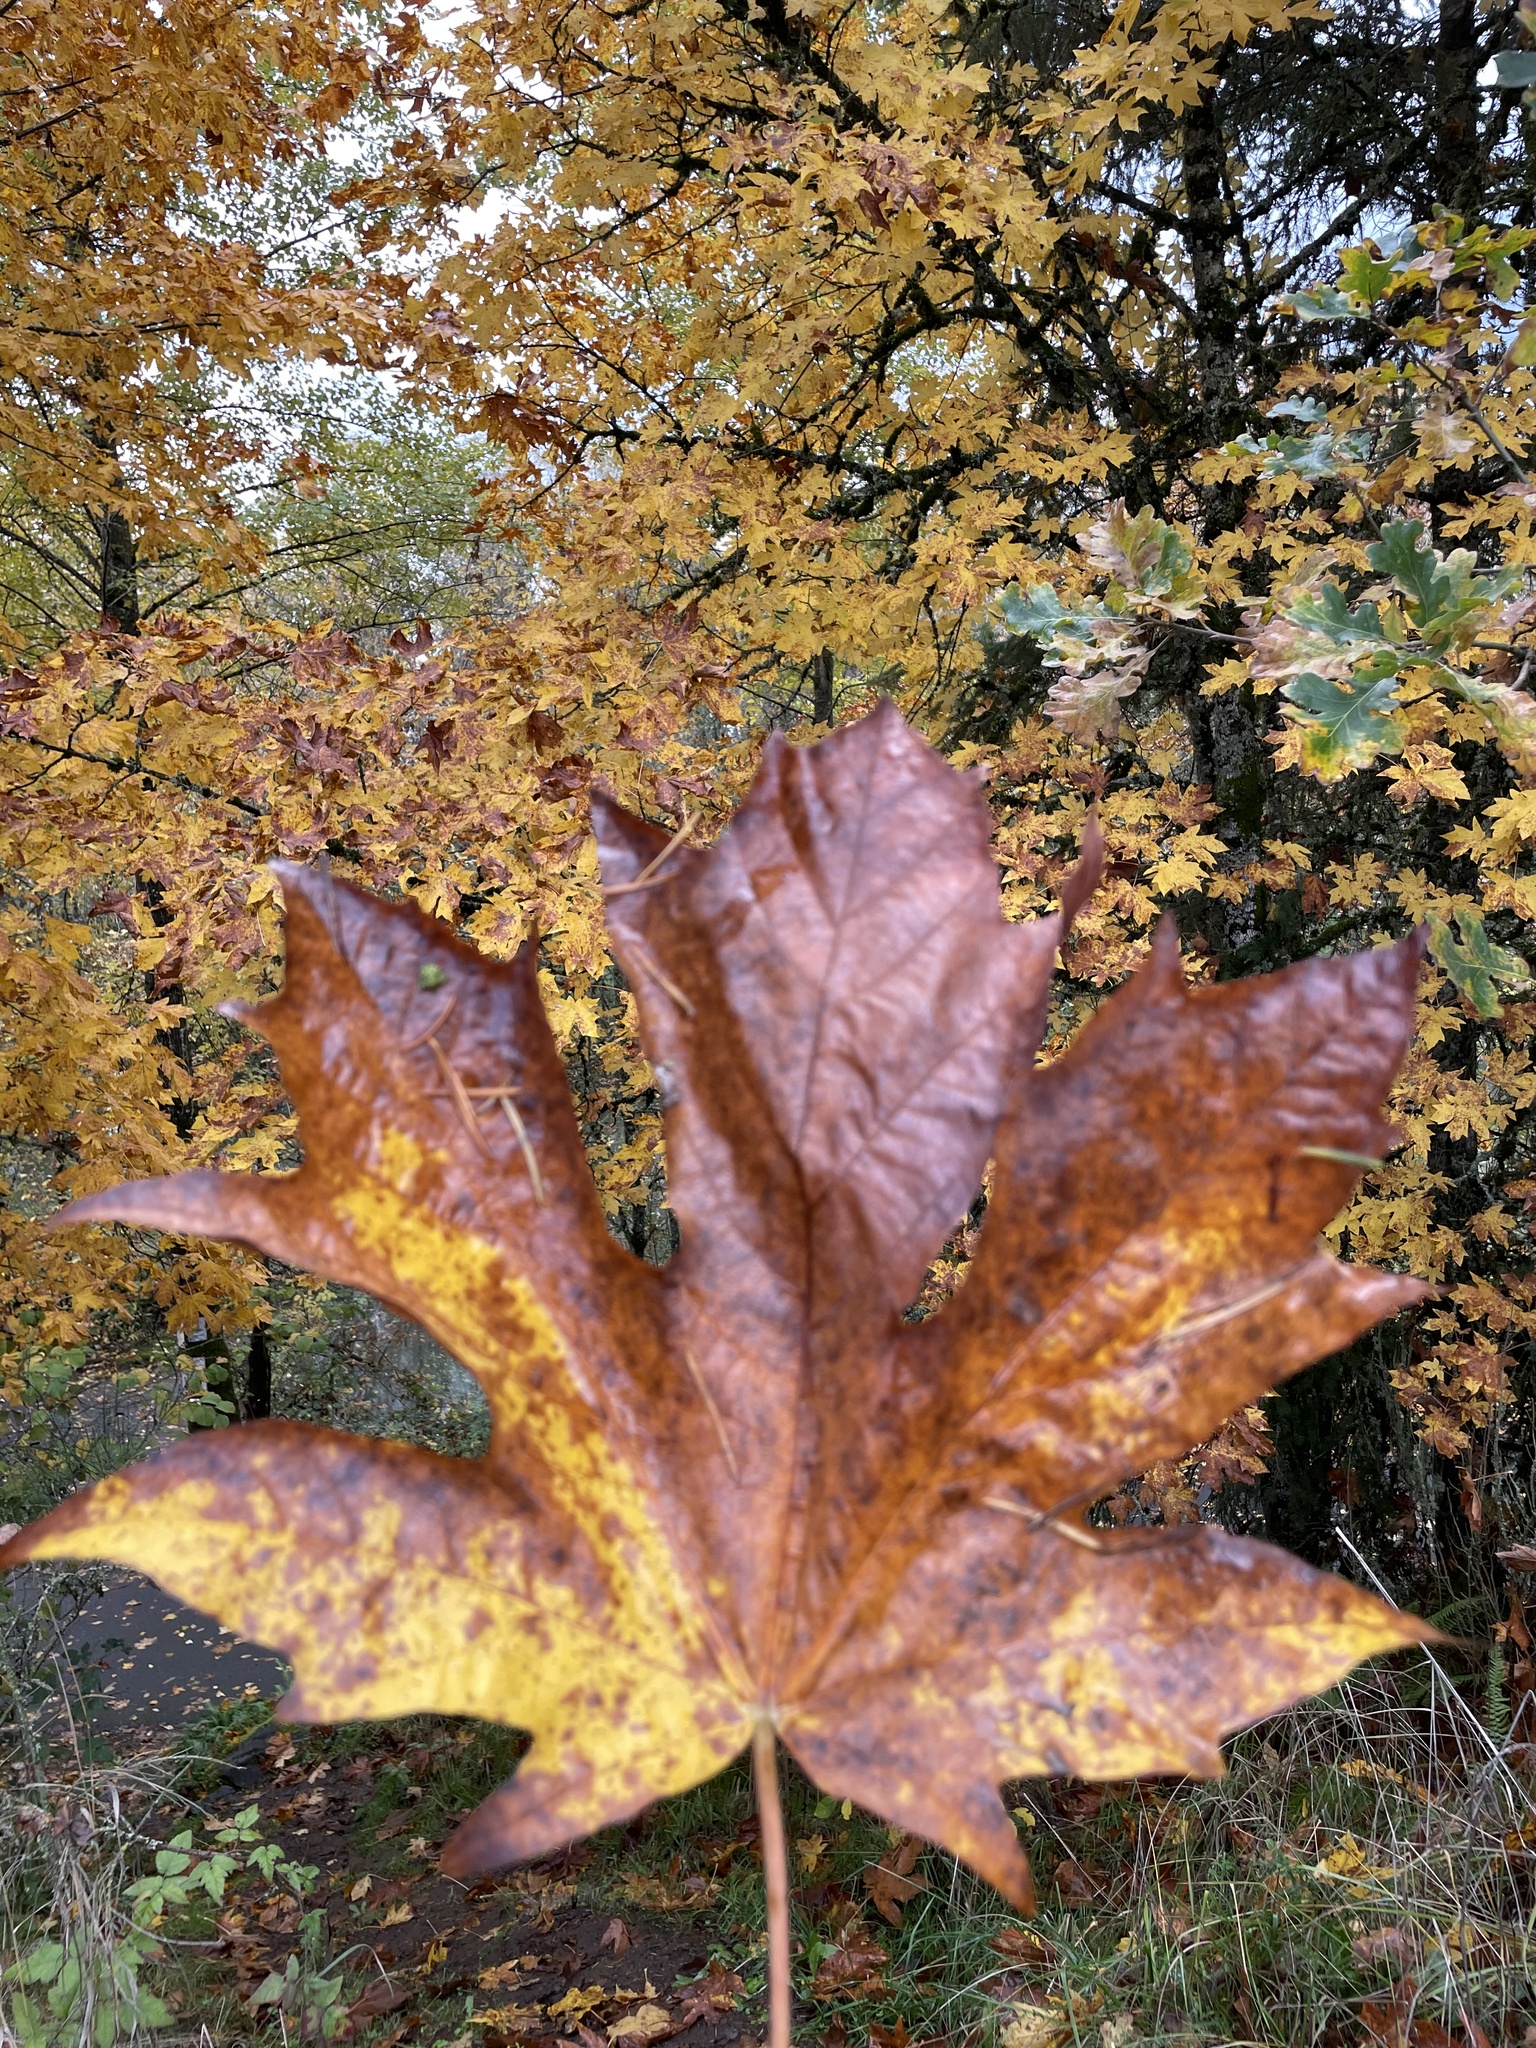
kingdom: Plantae
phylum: Tracheophyta
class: Magnoliopsida
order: Sapindales
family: Sapindaceae
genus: Acer
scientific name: Acer macrophyllum
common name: Oregon maple
